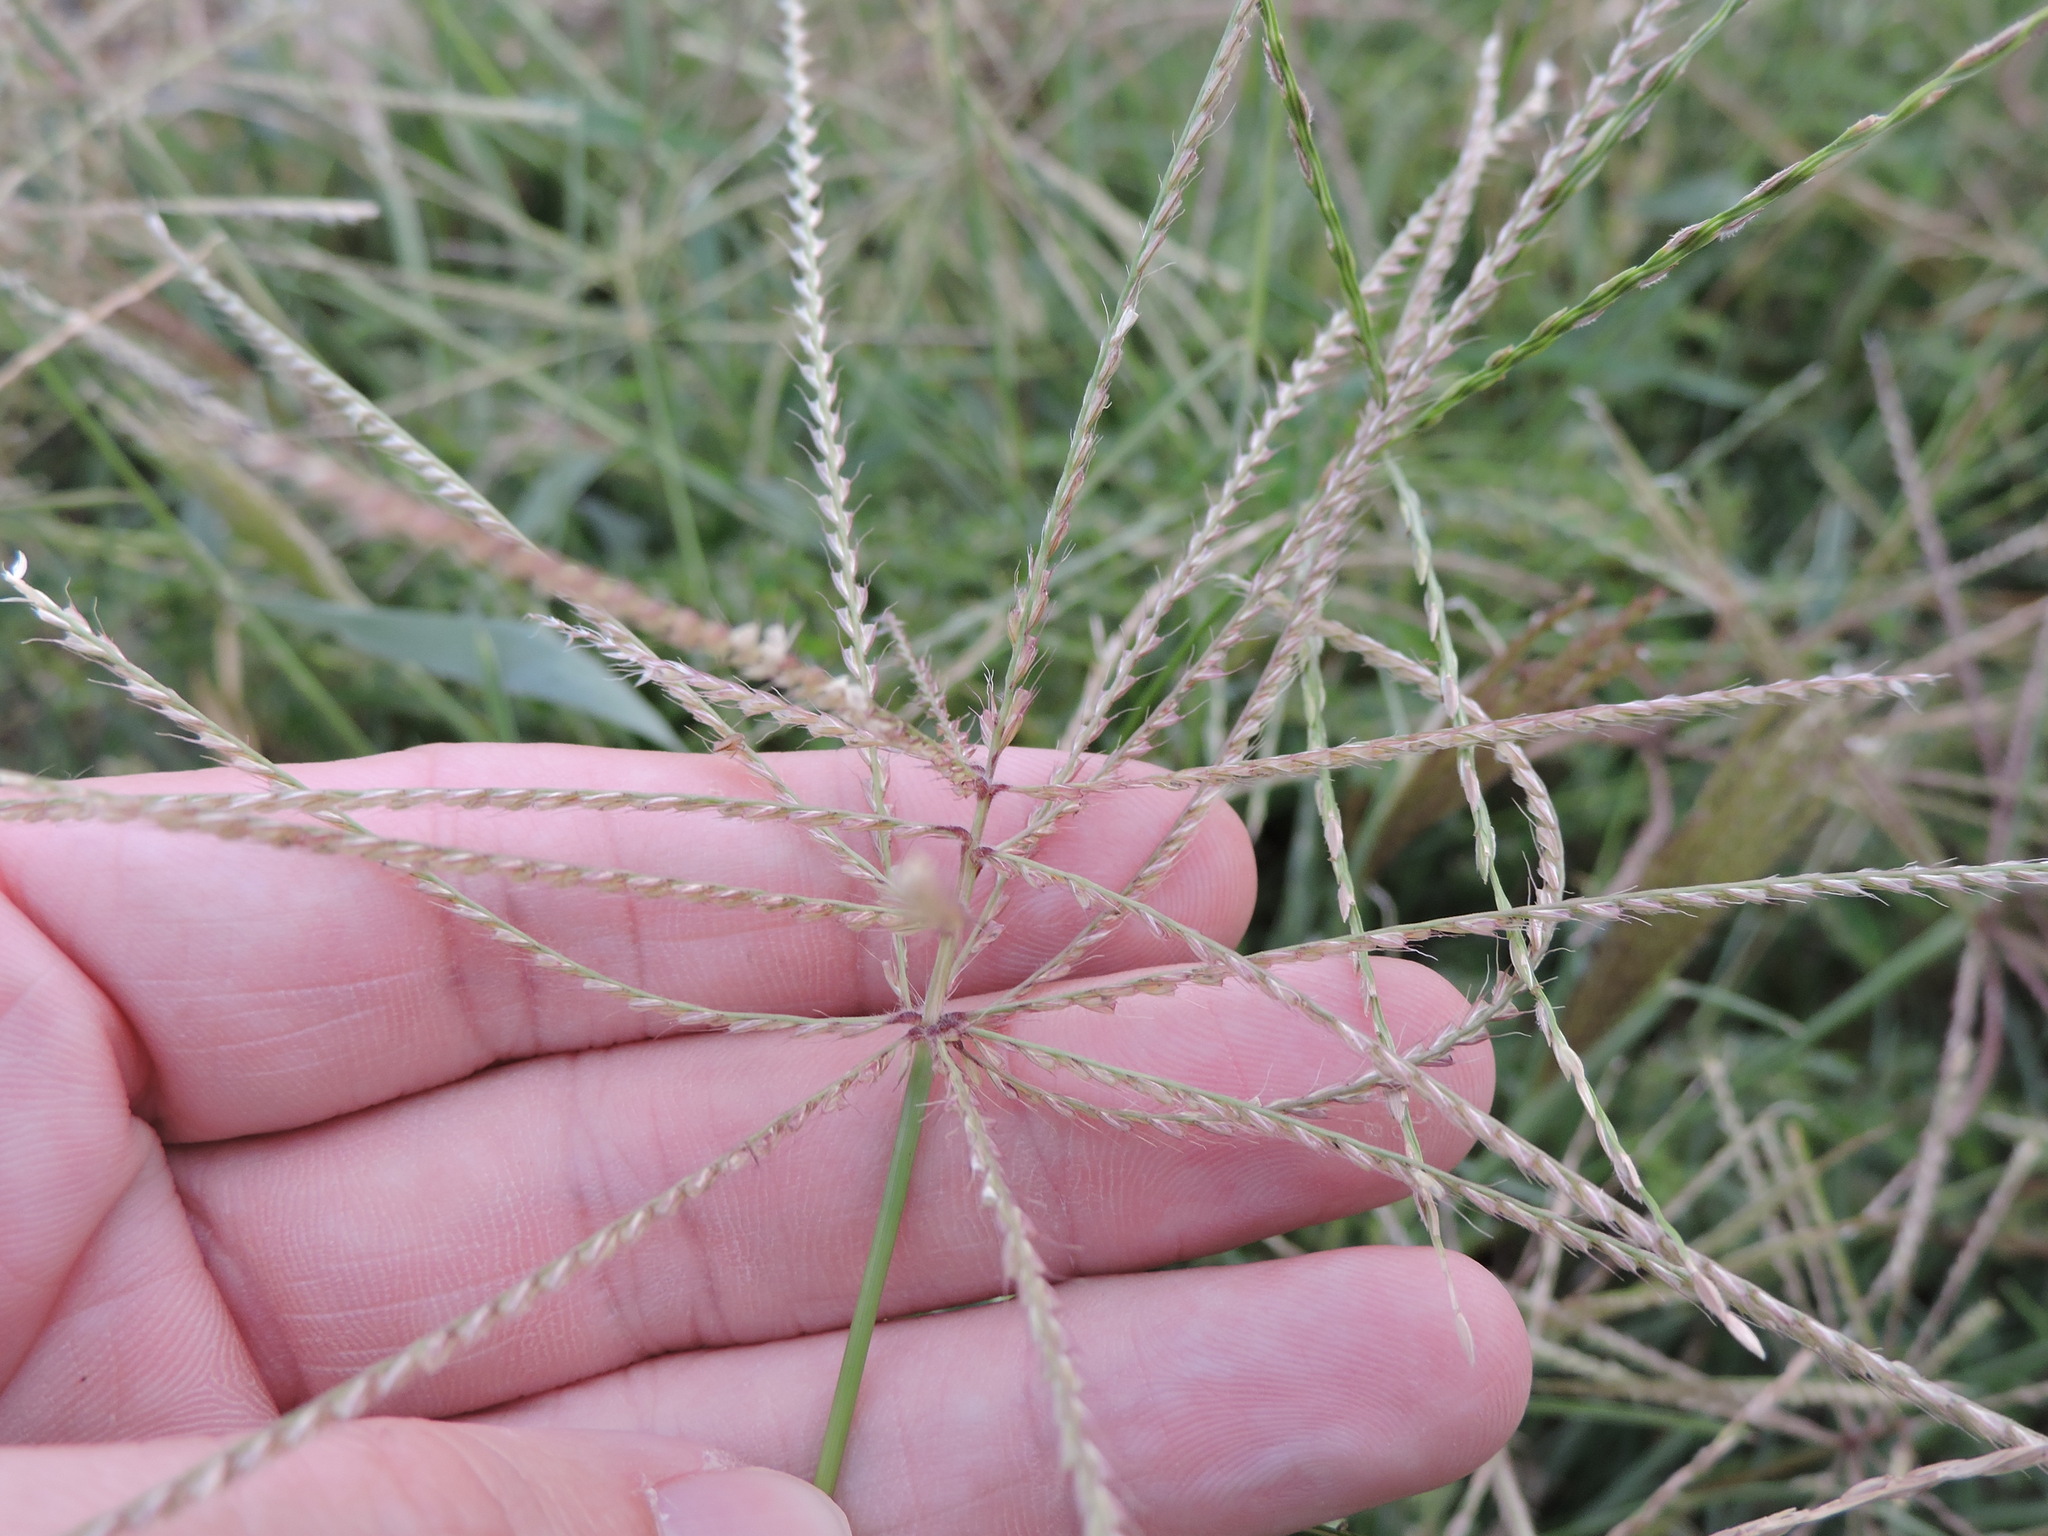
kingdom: Plantae
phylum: Tracheophyta
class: Liliopsida
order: Poales
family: Poaceae
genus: Chloris
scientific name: Chloris verticillata
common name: Tumble windmill grass
